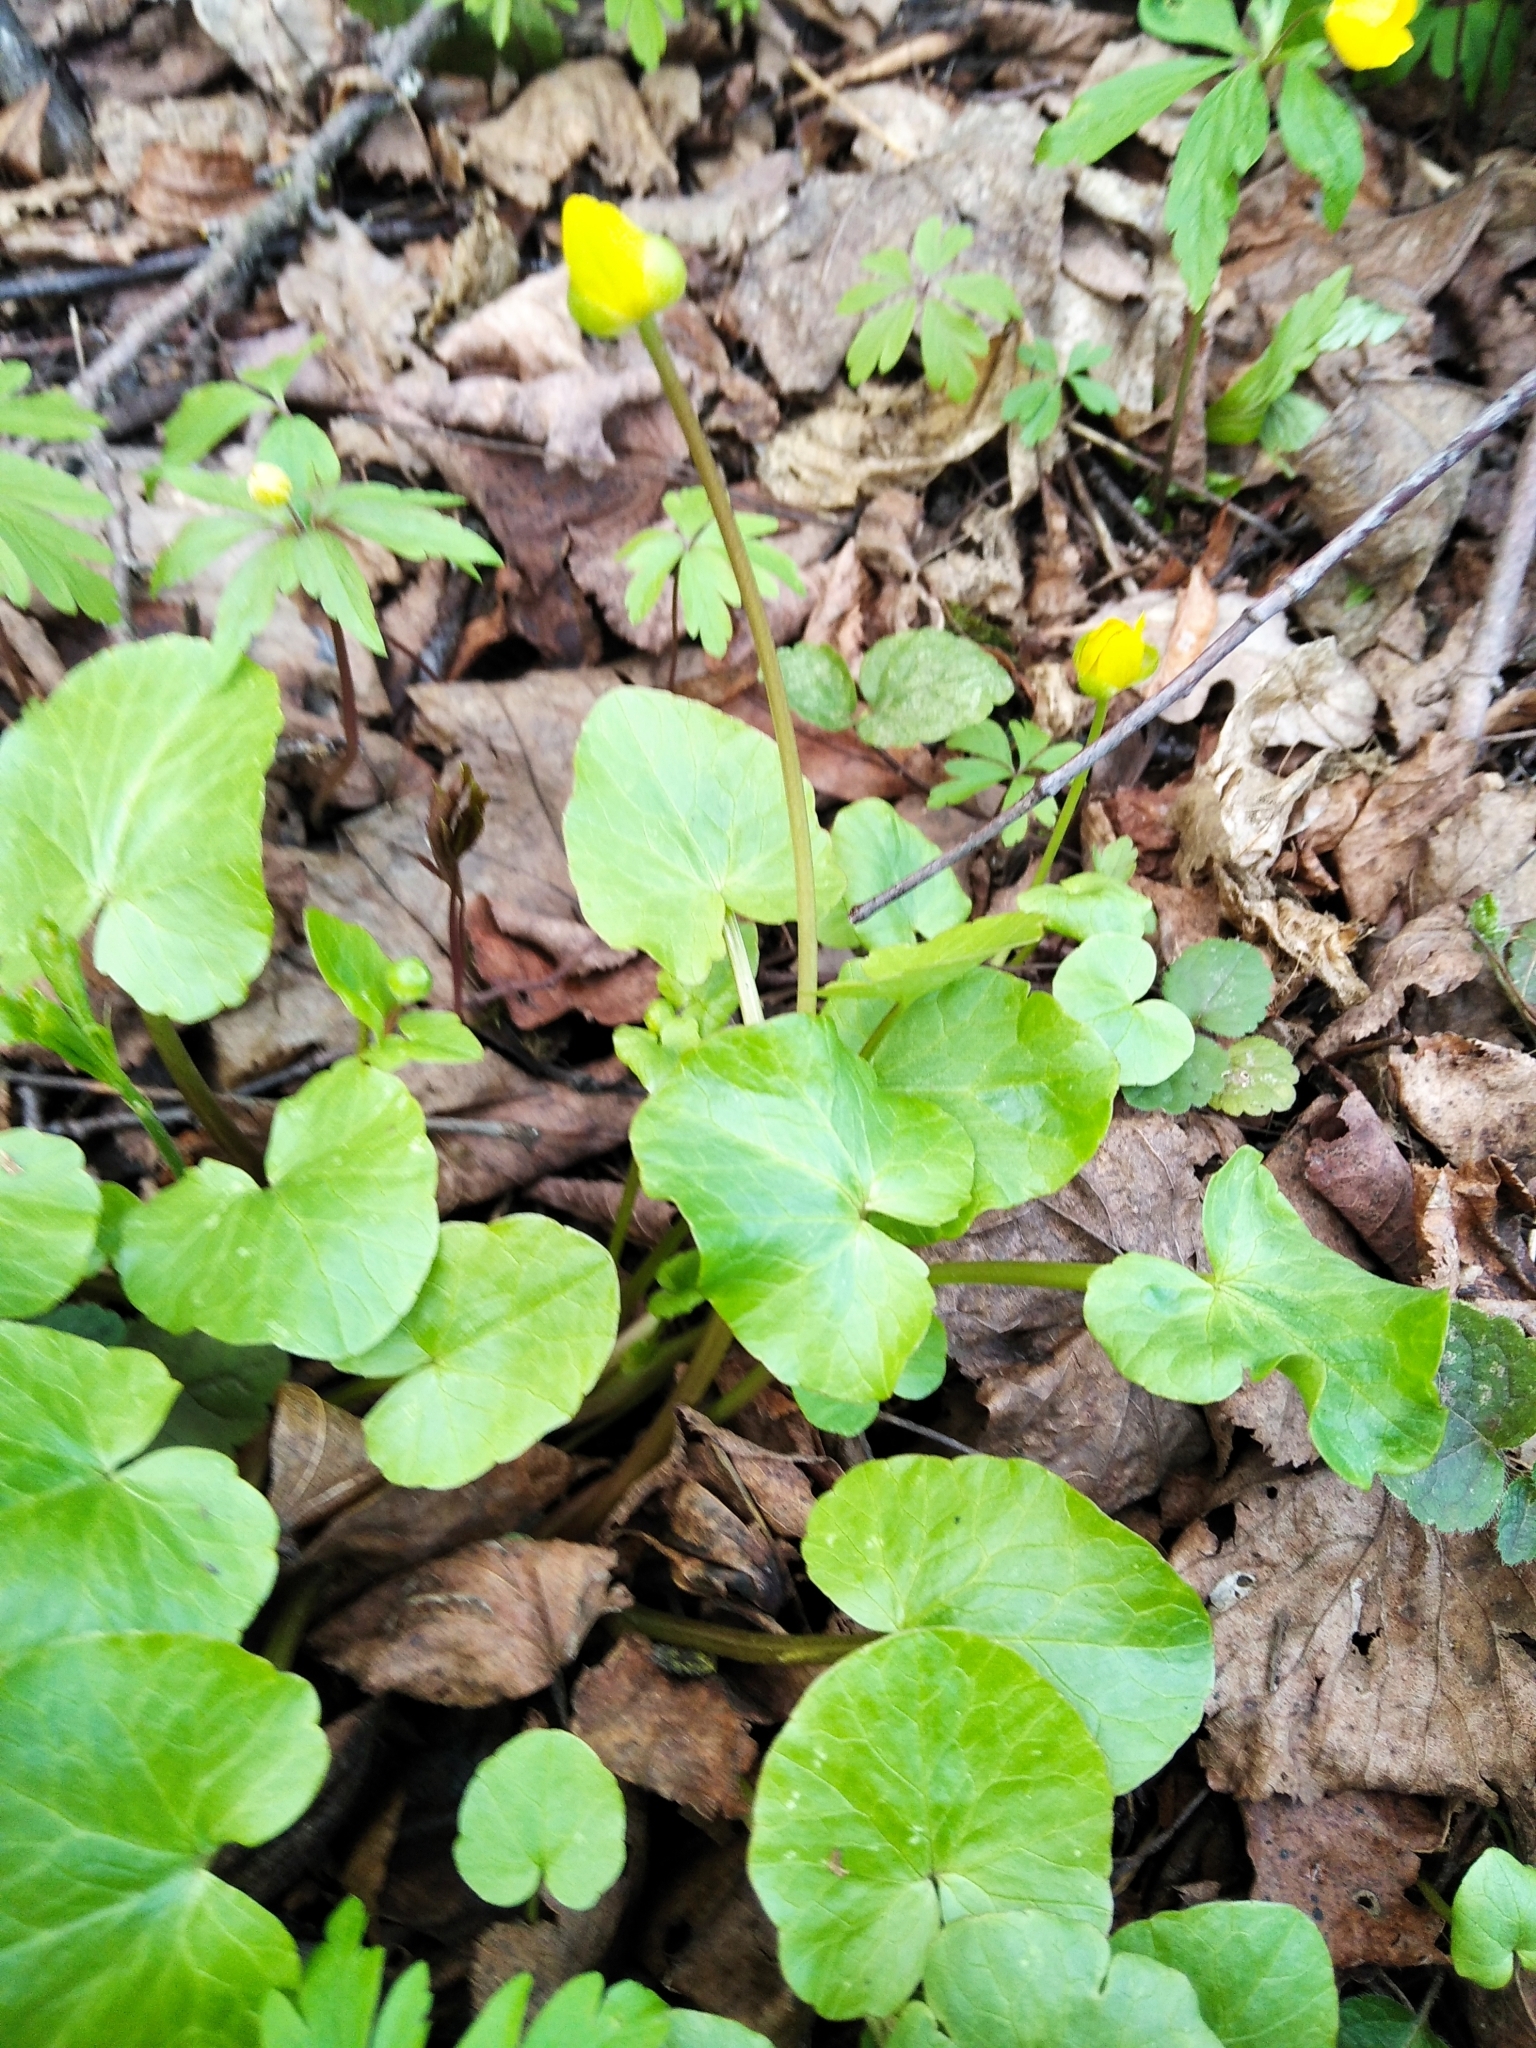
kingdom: Plantae
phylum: Tracheophyta
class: Magnoliopsida
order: Ranunculales
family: Ranunculaceae
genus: Ficaria
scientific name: Ficaria verna
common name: Lesser celandine
